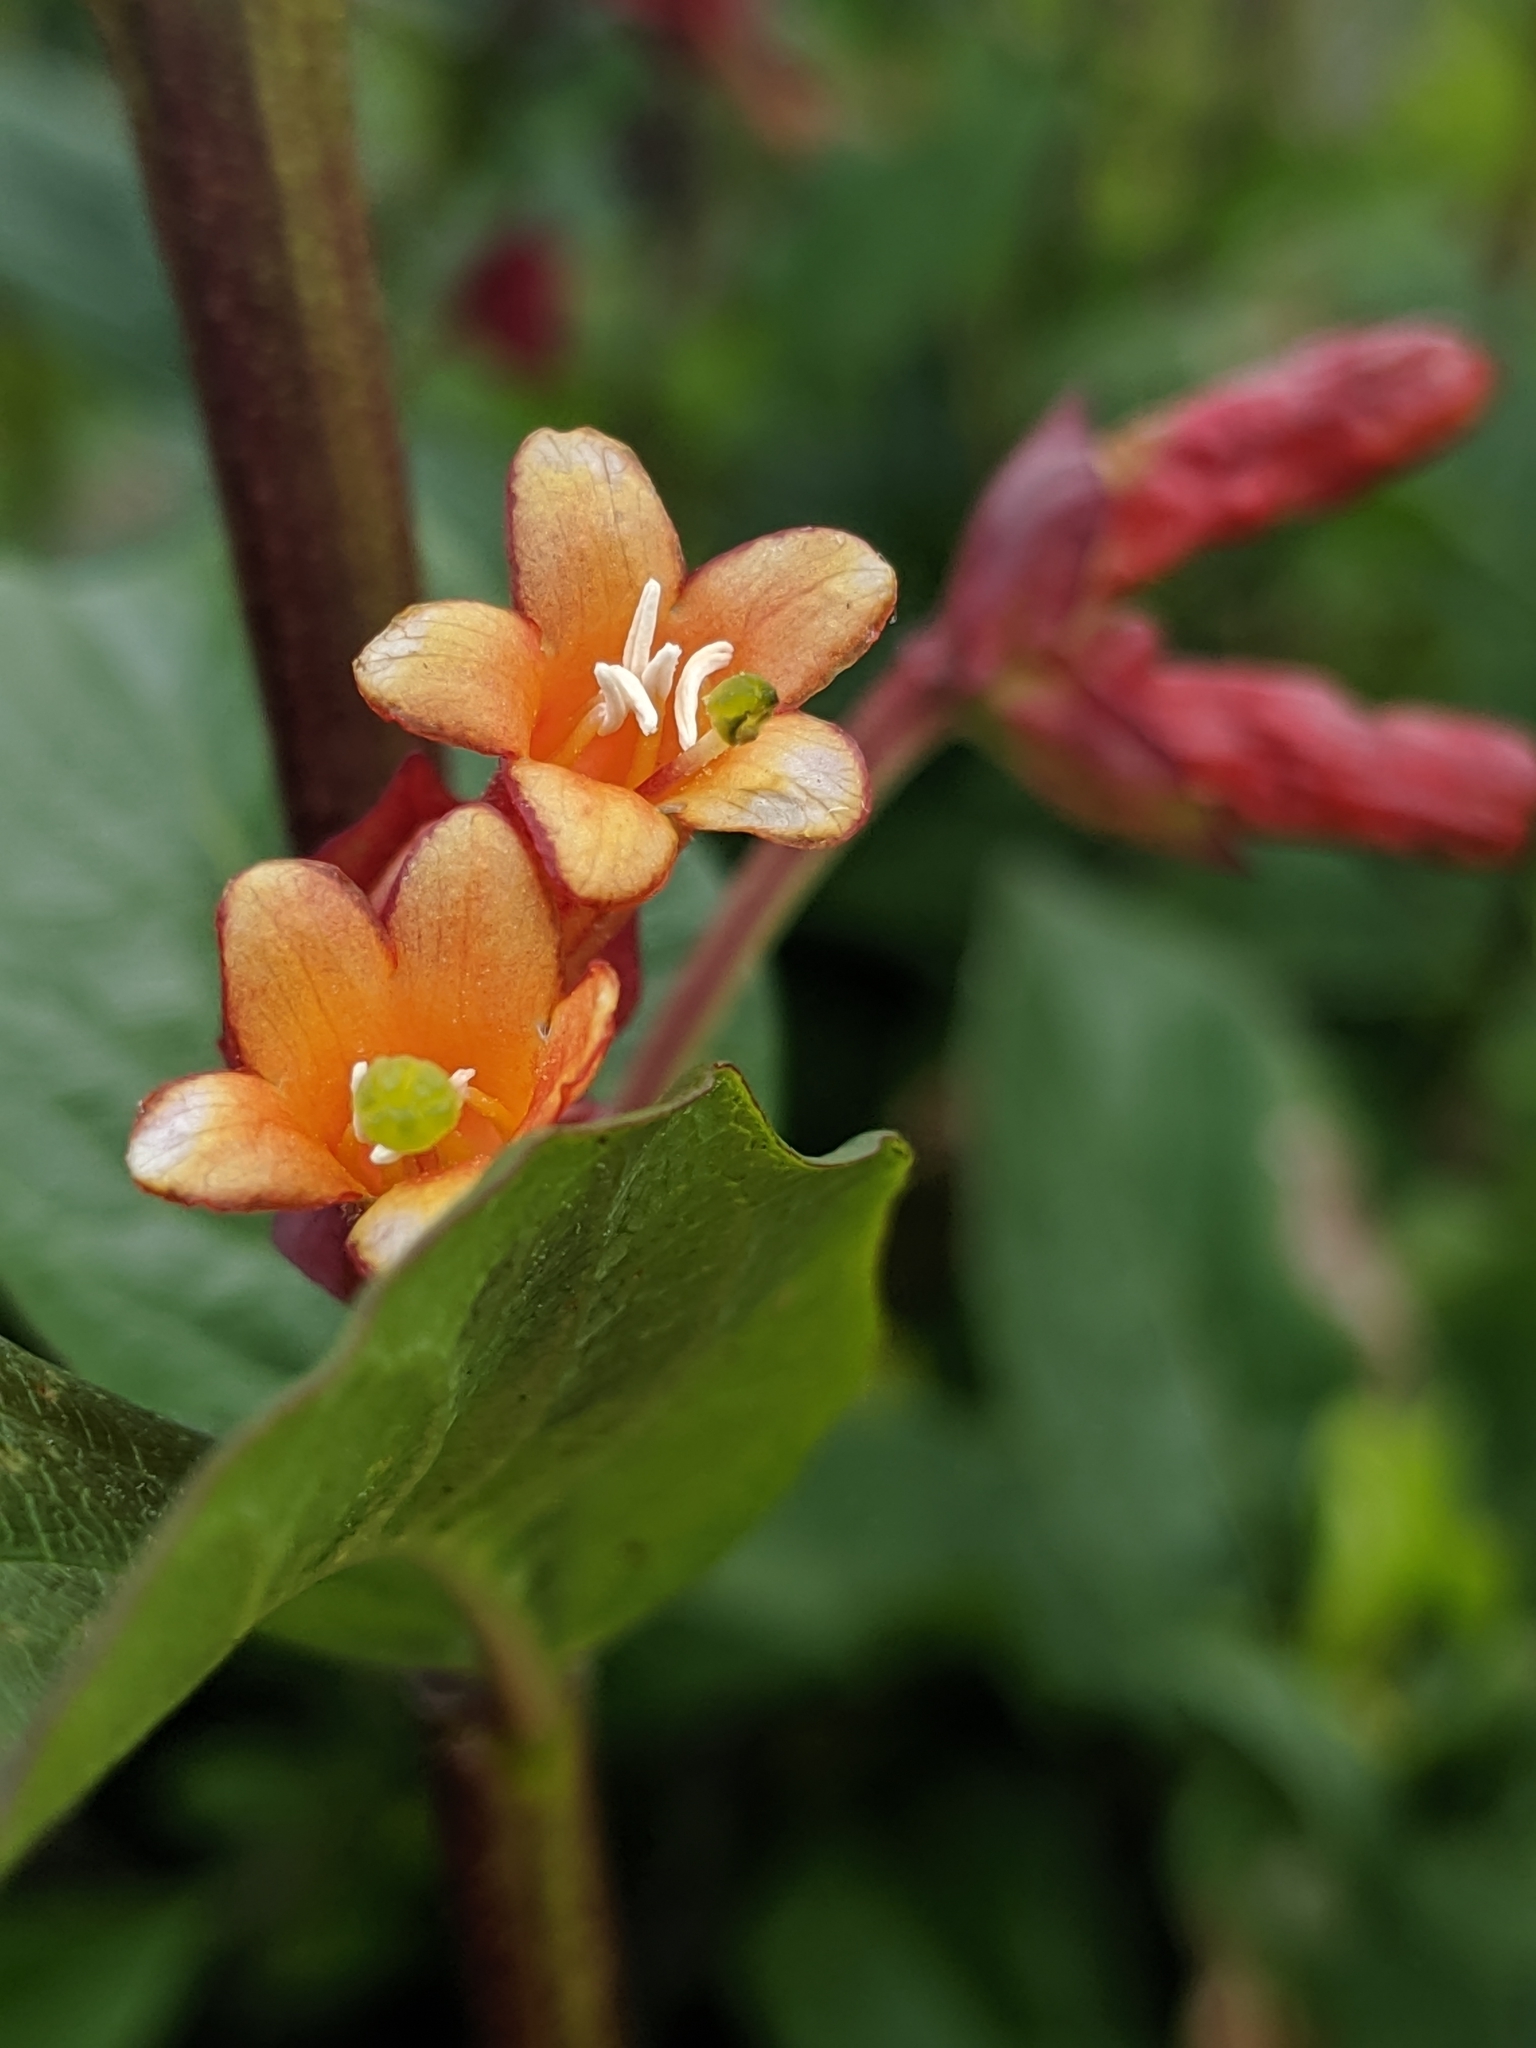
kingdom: Plantae
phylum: Tracheophyta
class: Magnoliopsida
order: Dipsacales
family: Caprifoliaceae
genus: Lonicera
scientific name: Lonicera involucrata
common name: Californian honeysuckle
